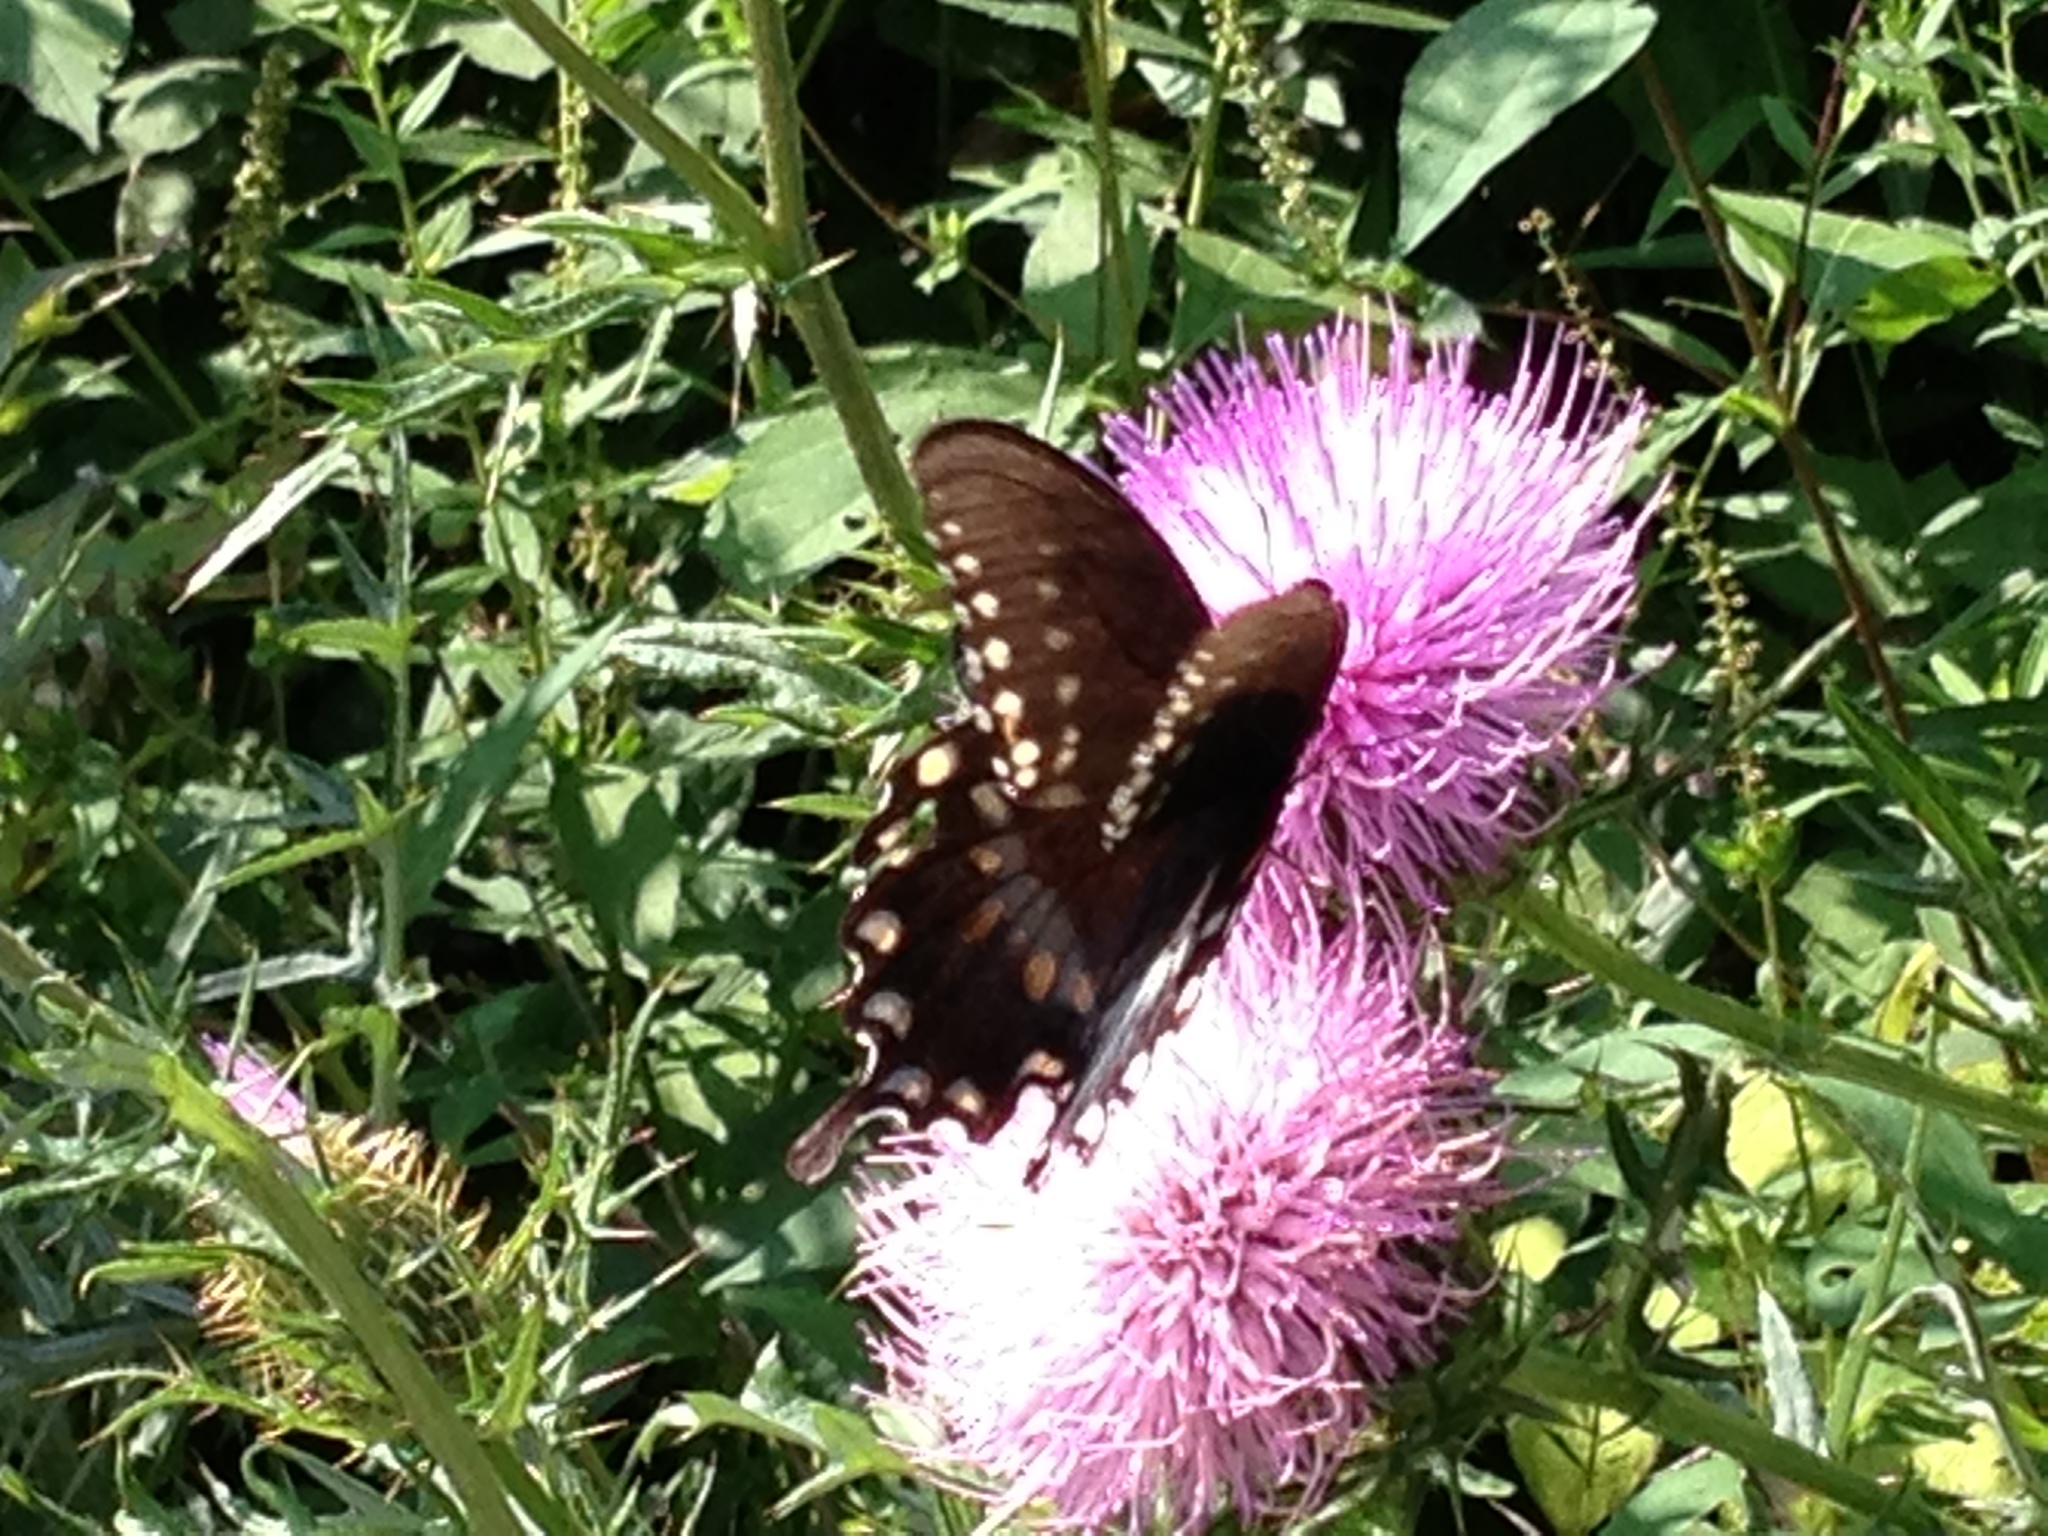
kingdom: Animalia
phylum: Arthropoda
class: Insecta
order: Lepidoptera
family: Papilionidae
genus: Papilio
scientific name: Papilio troilus
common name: Spicebush swallowtail
